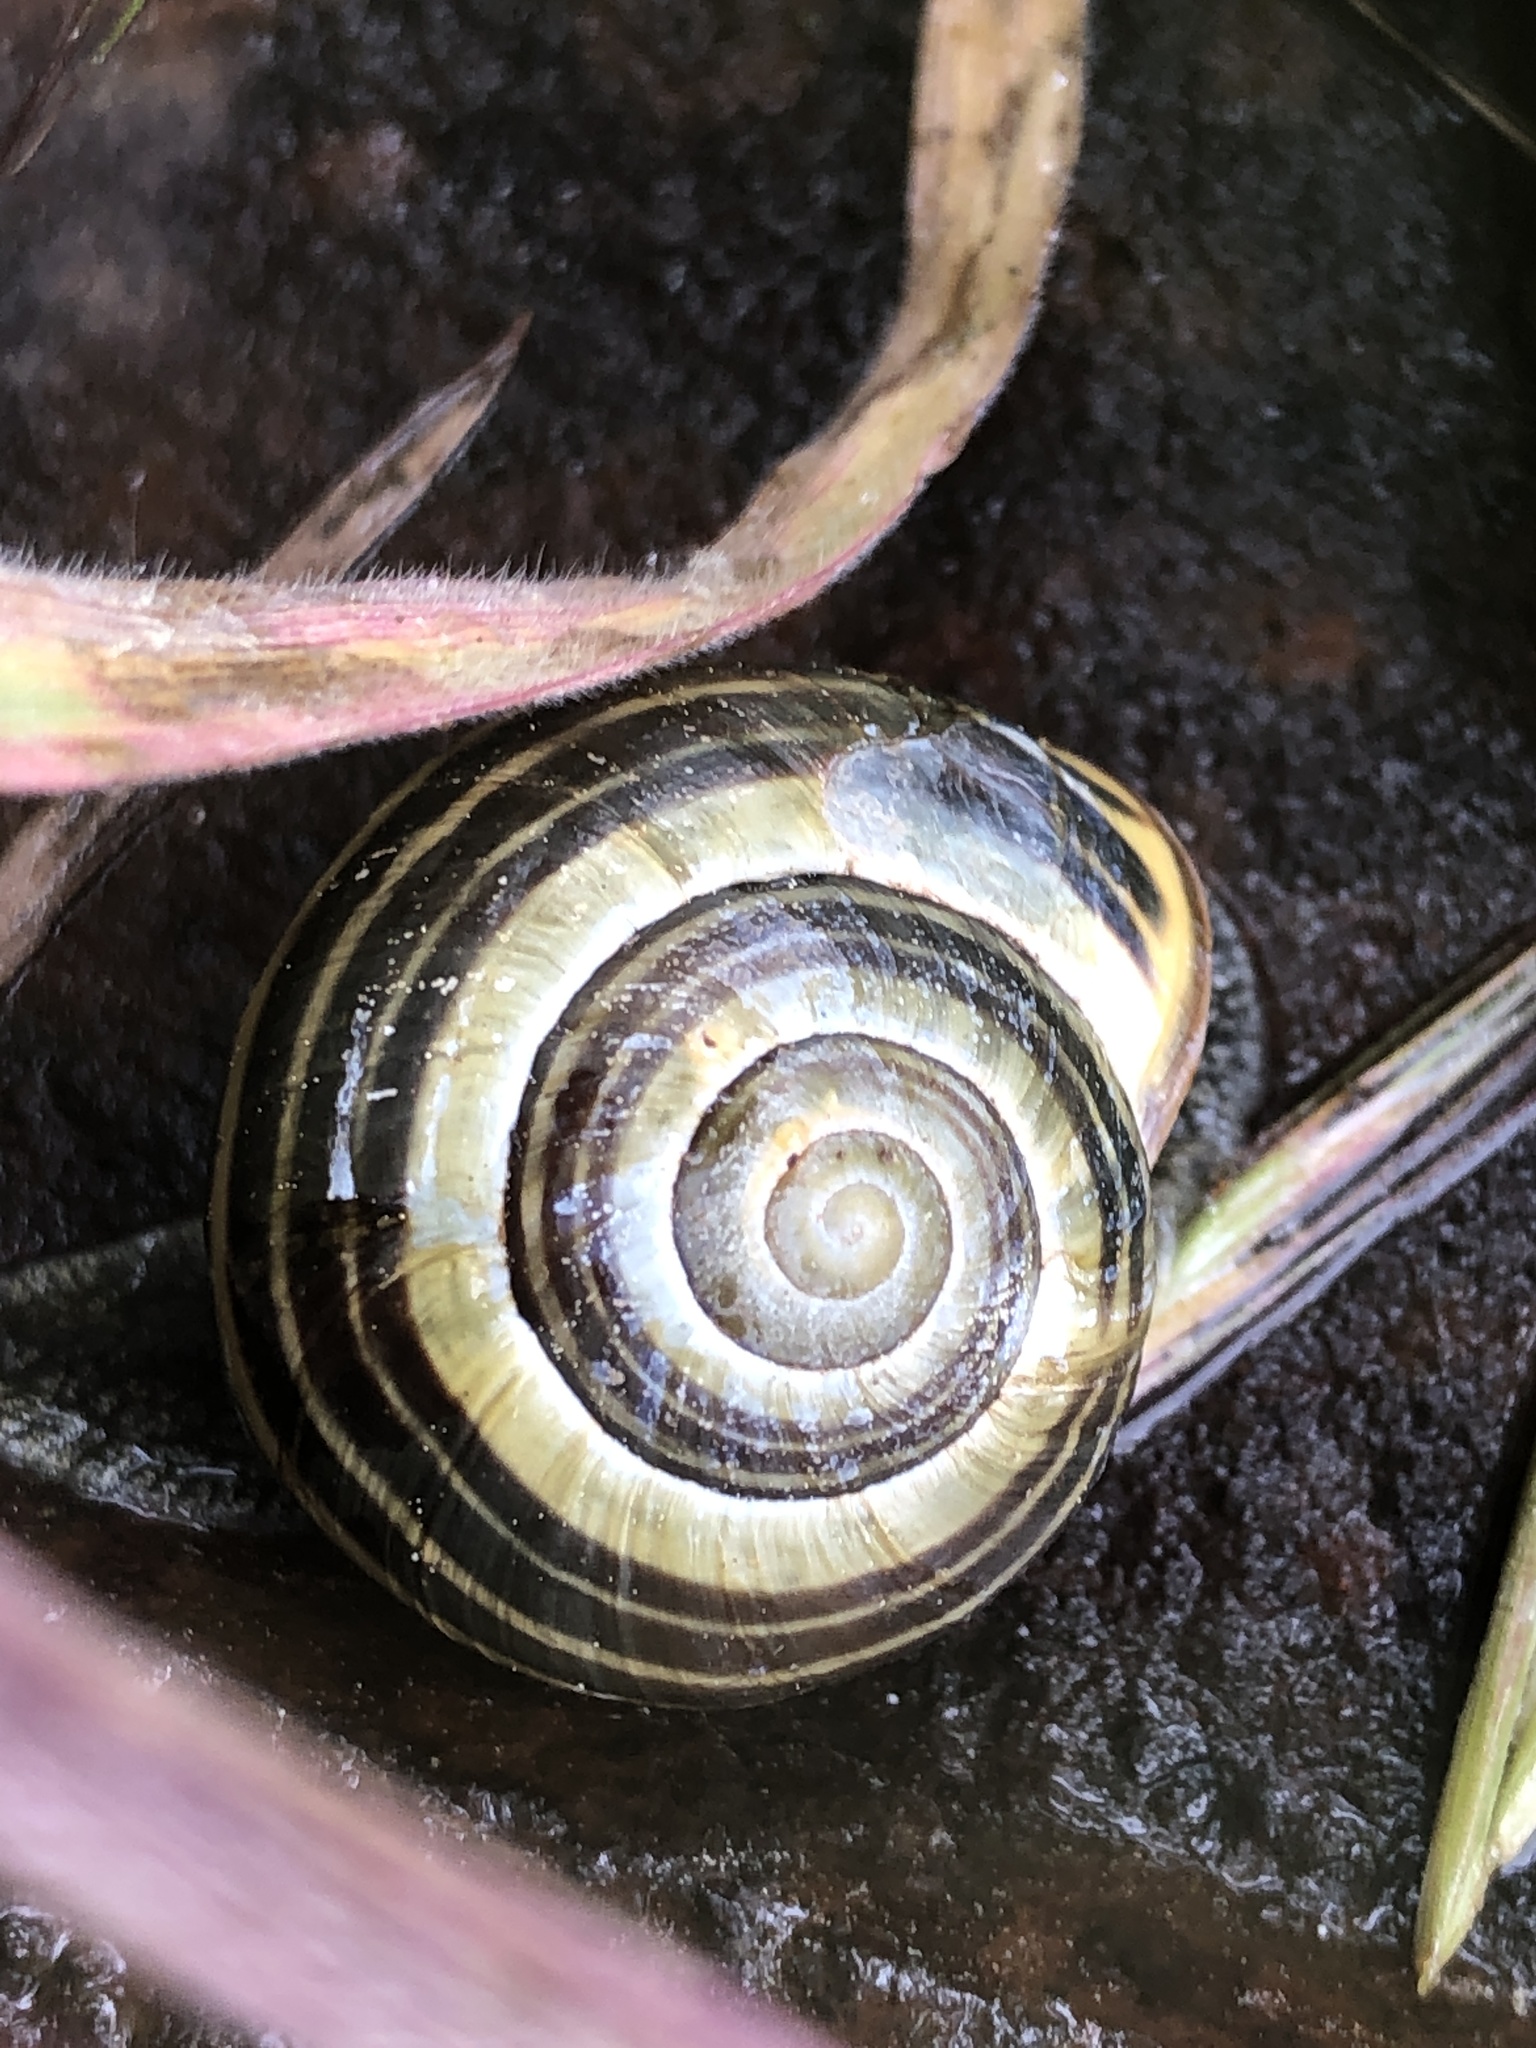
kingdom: Animalia
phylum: Mollusca
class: Gastropoda
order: Stylommatophora
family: Helicidae
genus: Cepaea
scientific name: Cepaea nemoralis
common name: Grovesnail
